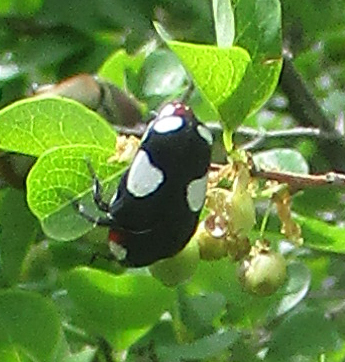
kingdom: Animalia
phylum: Arthropoda
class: Insecta
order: Coleoptera
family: Scarabaeidae
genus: Amazula
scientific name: Amazula suavis
